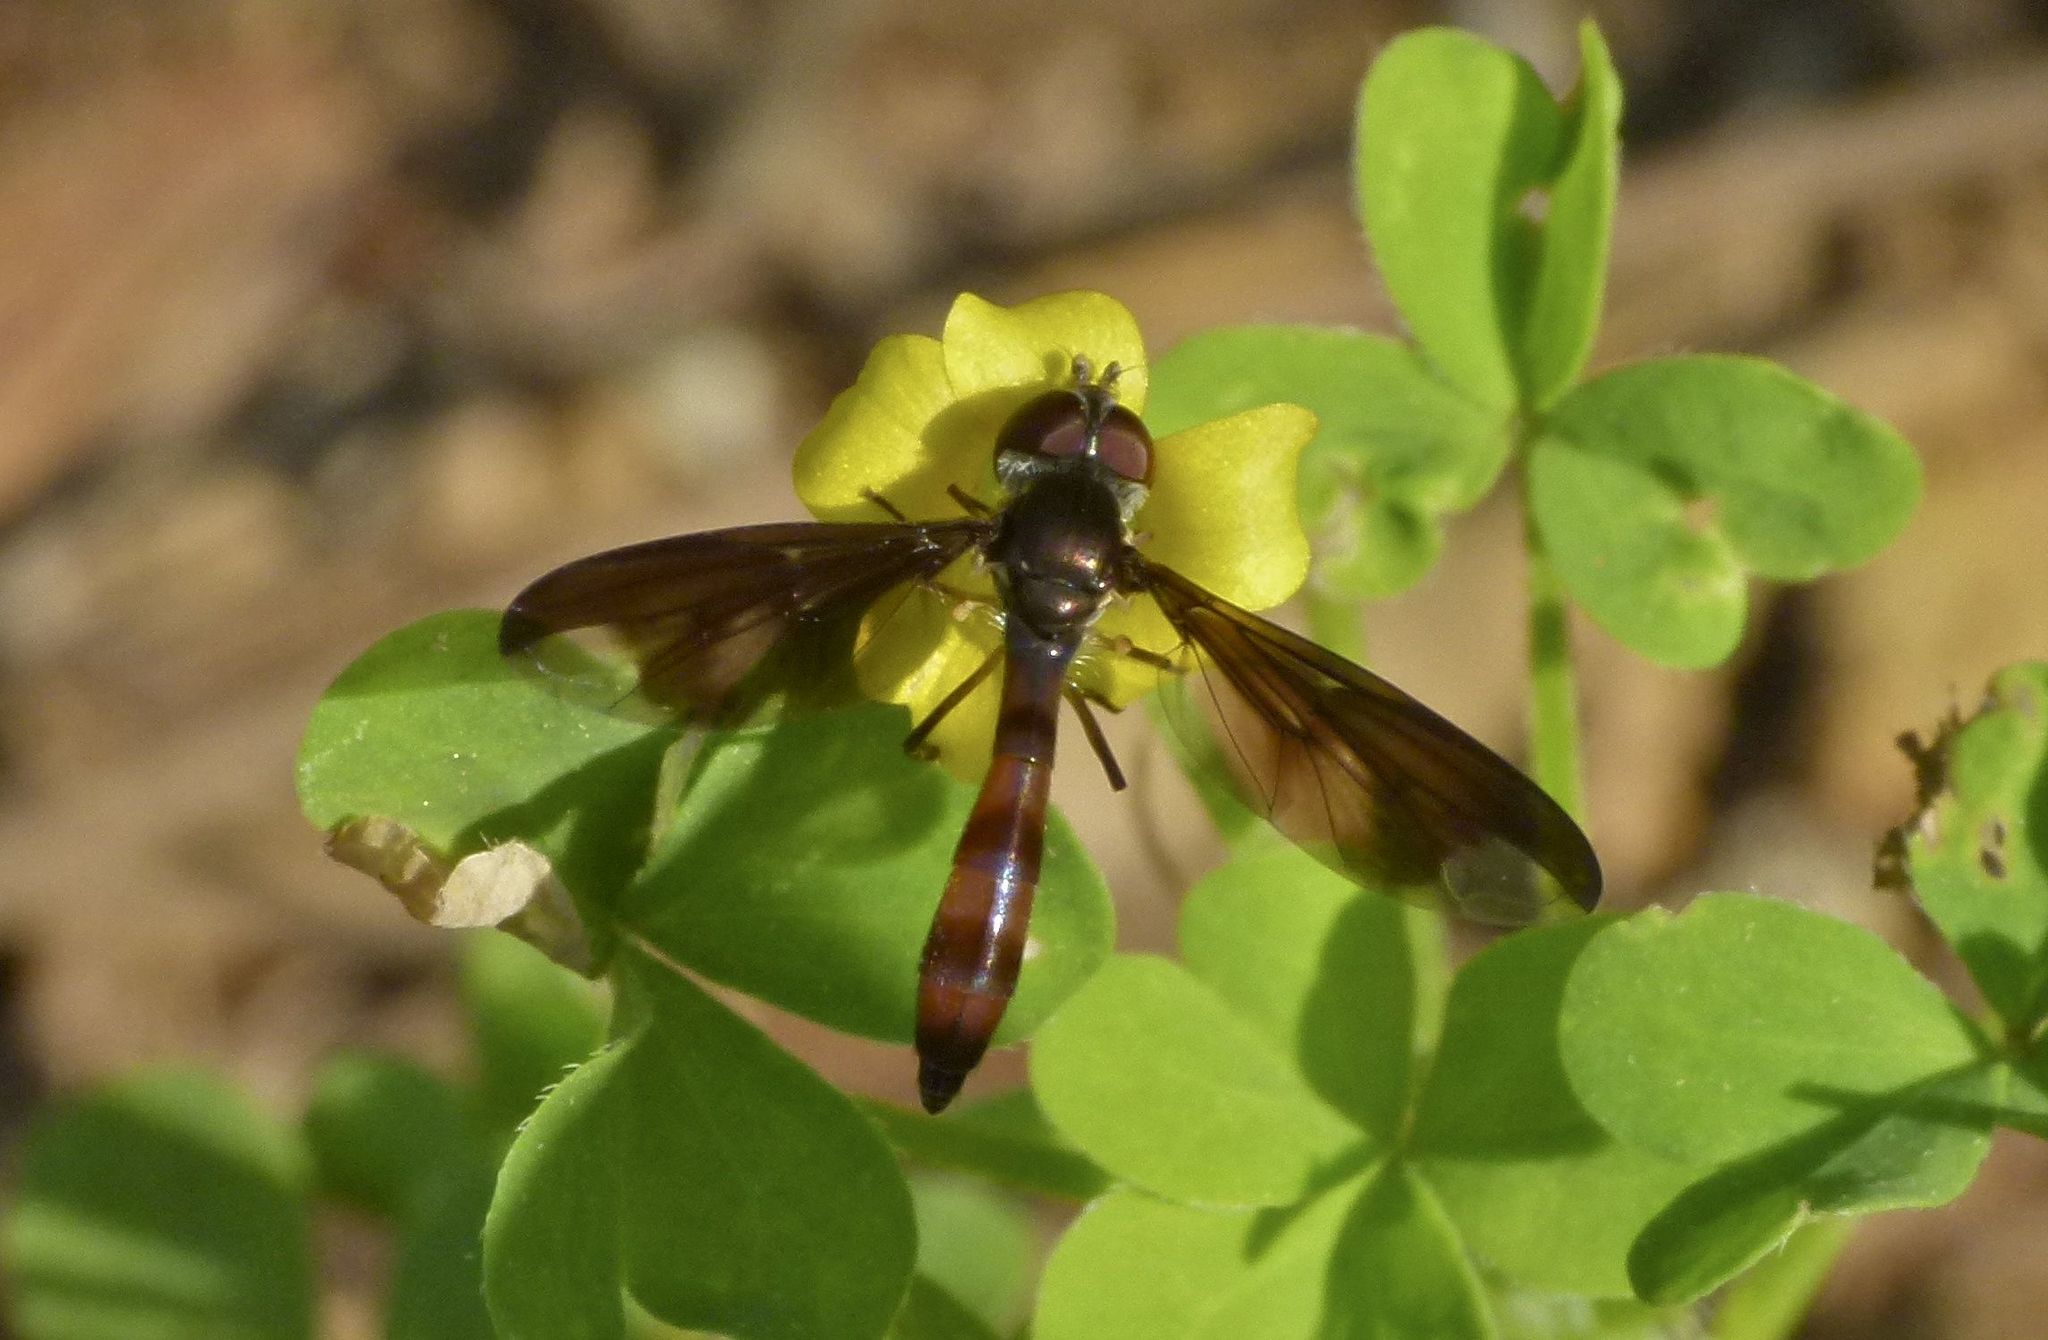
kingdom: Animalia
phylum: Arthropoda
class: Insecta
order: Diptera
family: Syrphidae
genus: Ocyptamus
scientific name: Ocyptamus fuscipennis
